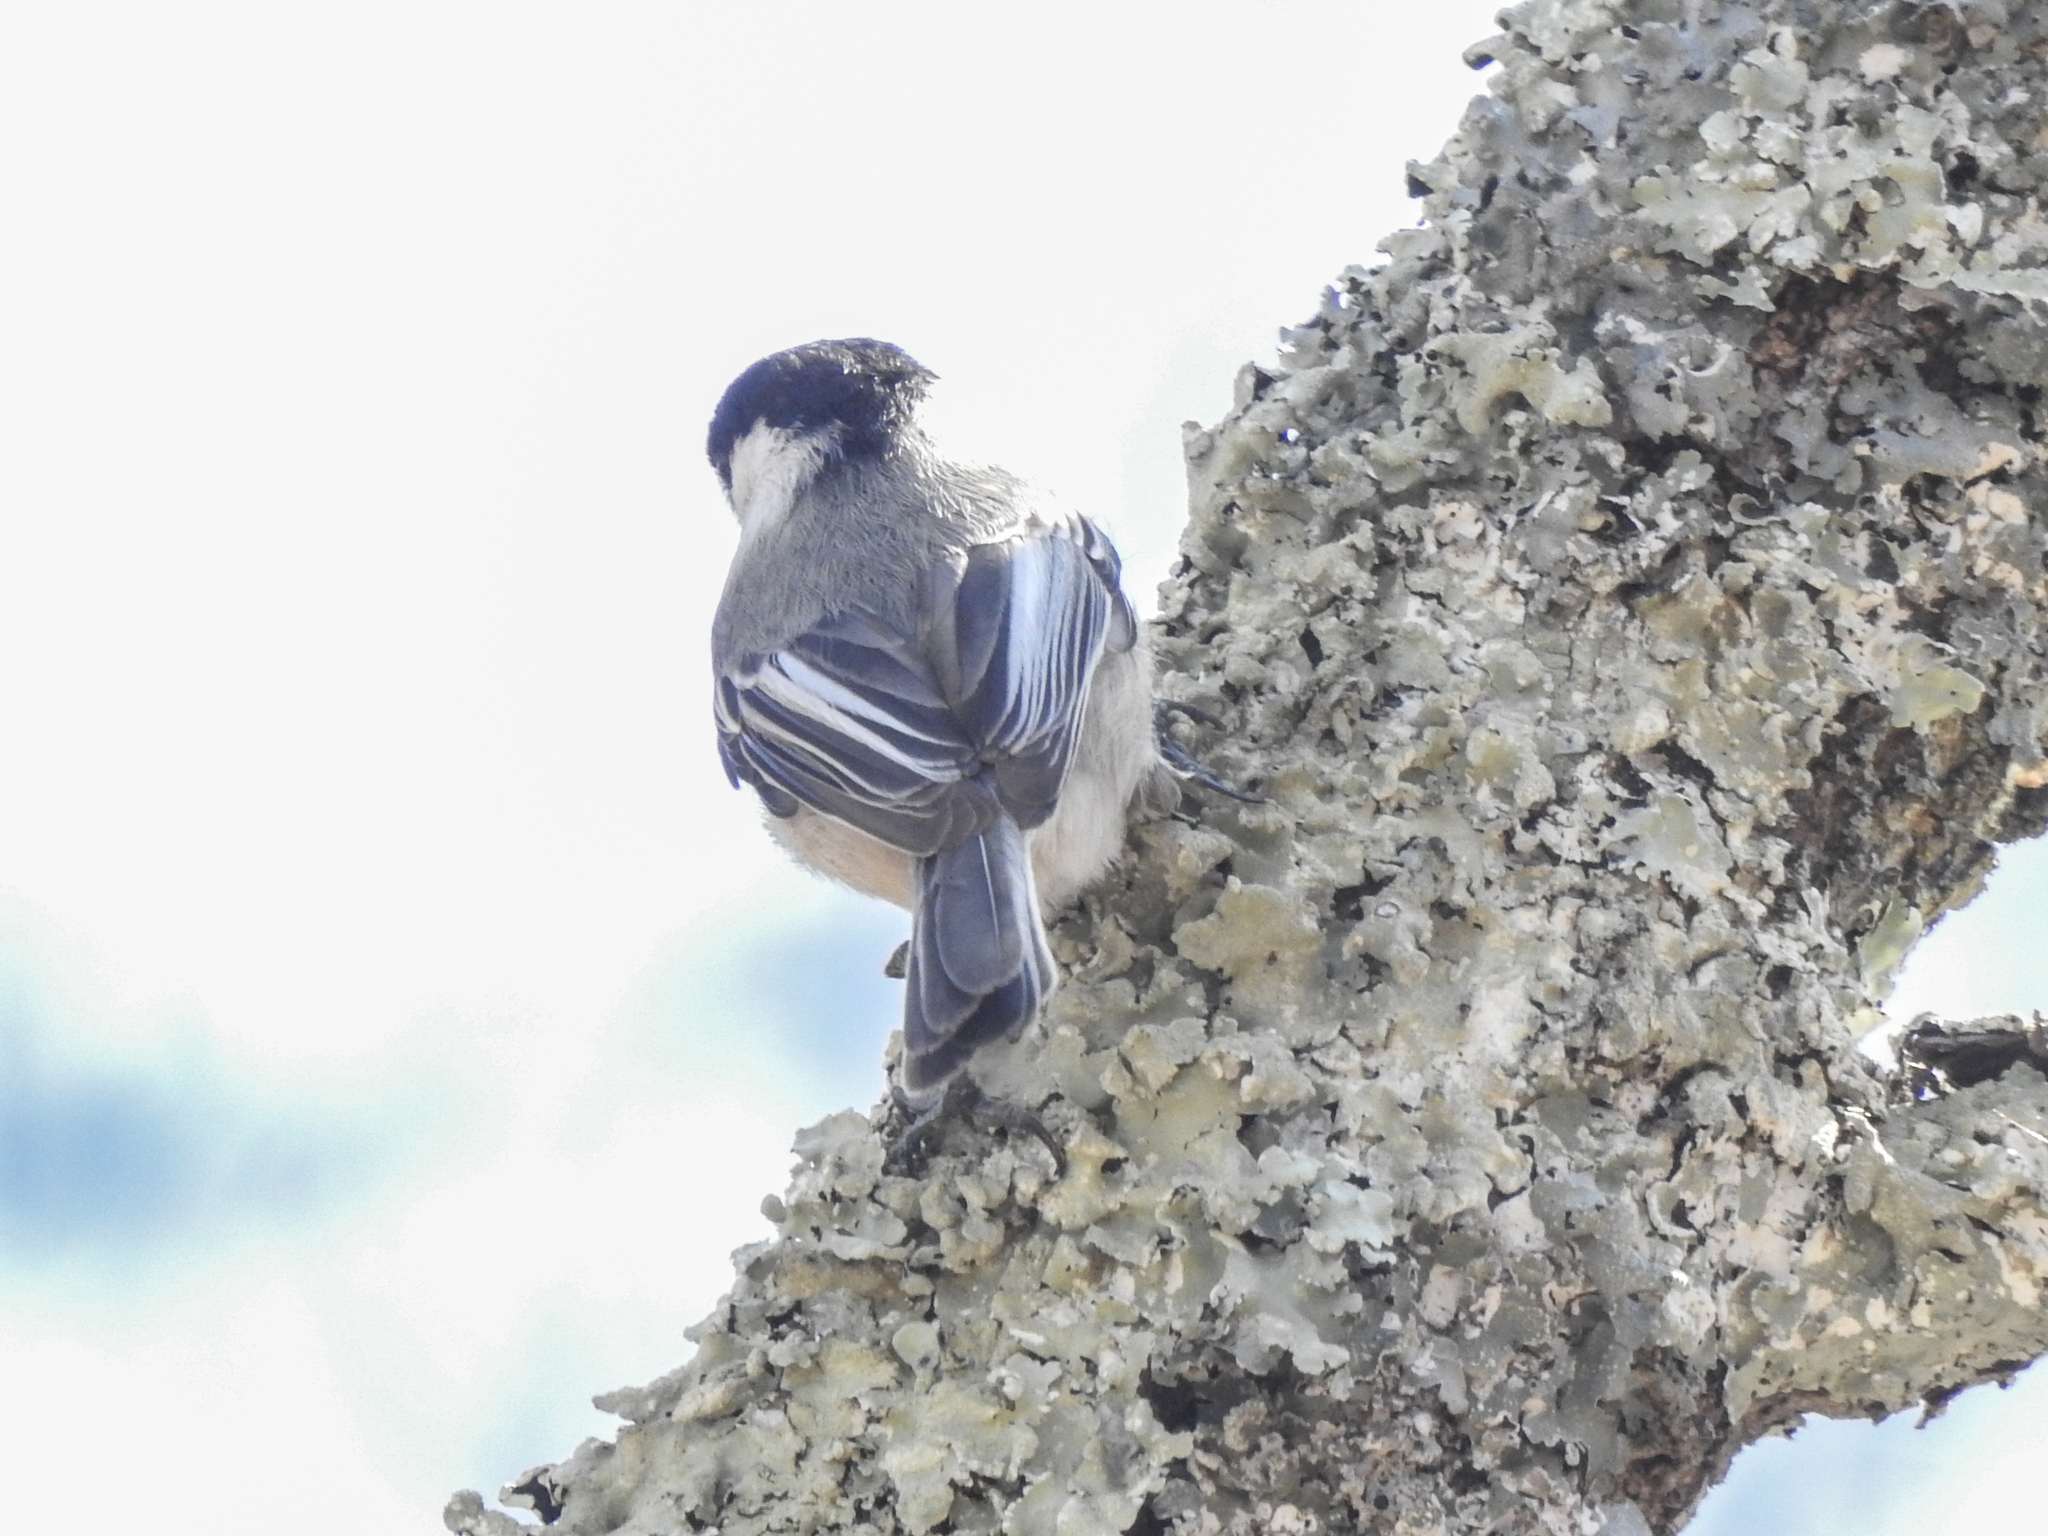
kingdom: Animalia
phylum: Chordata
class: Aves
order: Passeriformes
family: Paridae
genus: Poecile
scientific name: Poecile atricapillus
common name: Black-capped chickadee
